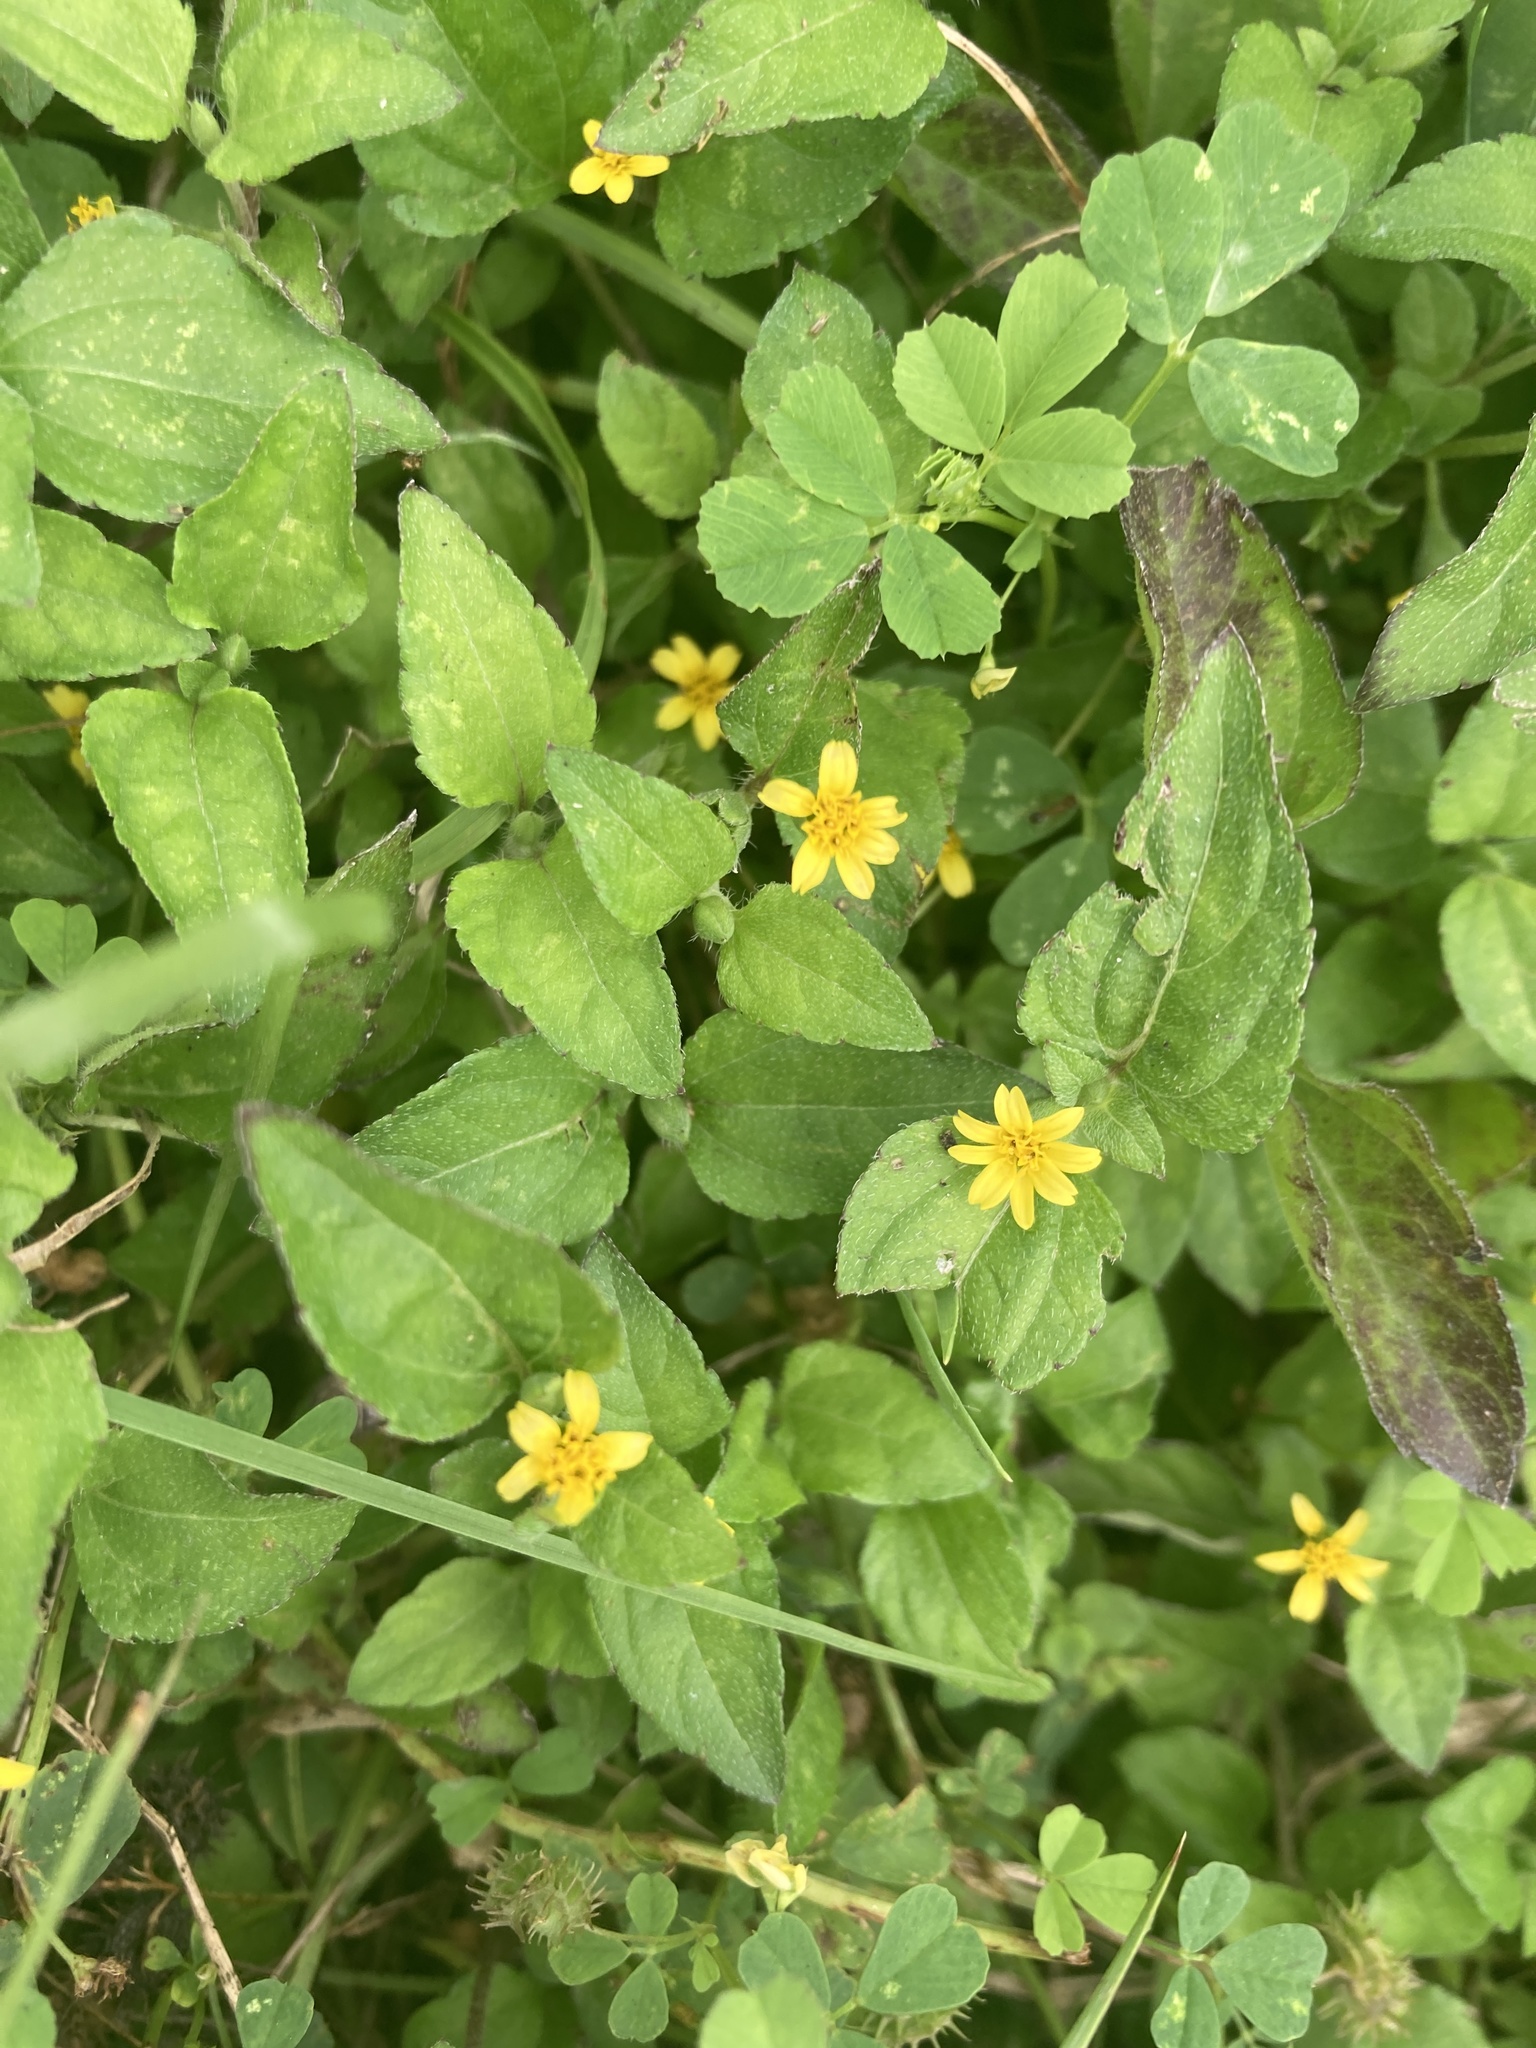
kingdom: Plantae
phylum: Tracheophyta
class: Magnoliopsida
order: Asterales
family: Asteraceae
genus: Calyptocarpus
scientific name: Calyptocarpus vialis
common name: Straggler daisy
